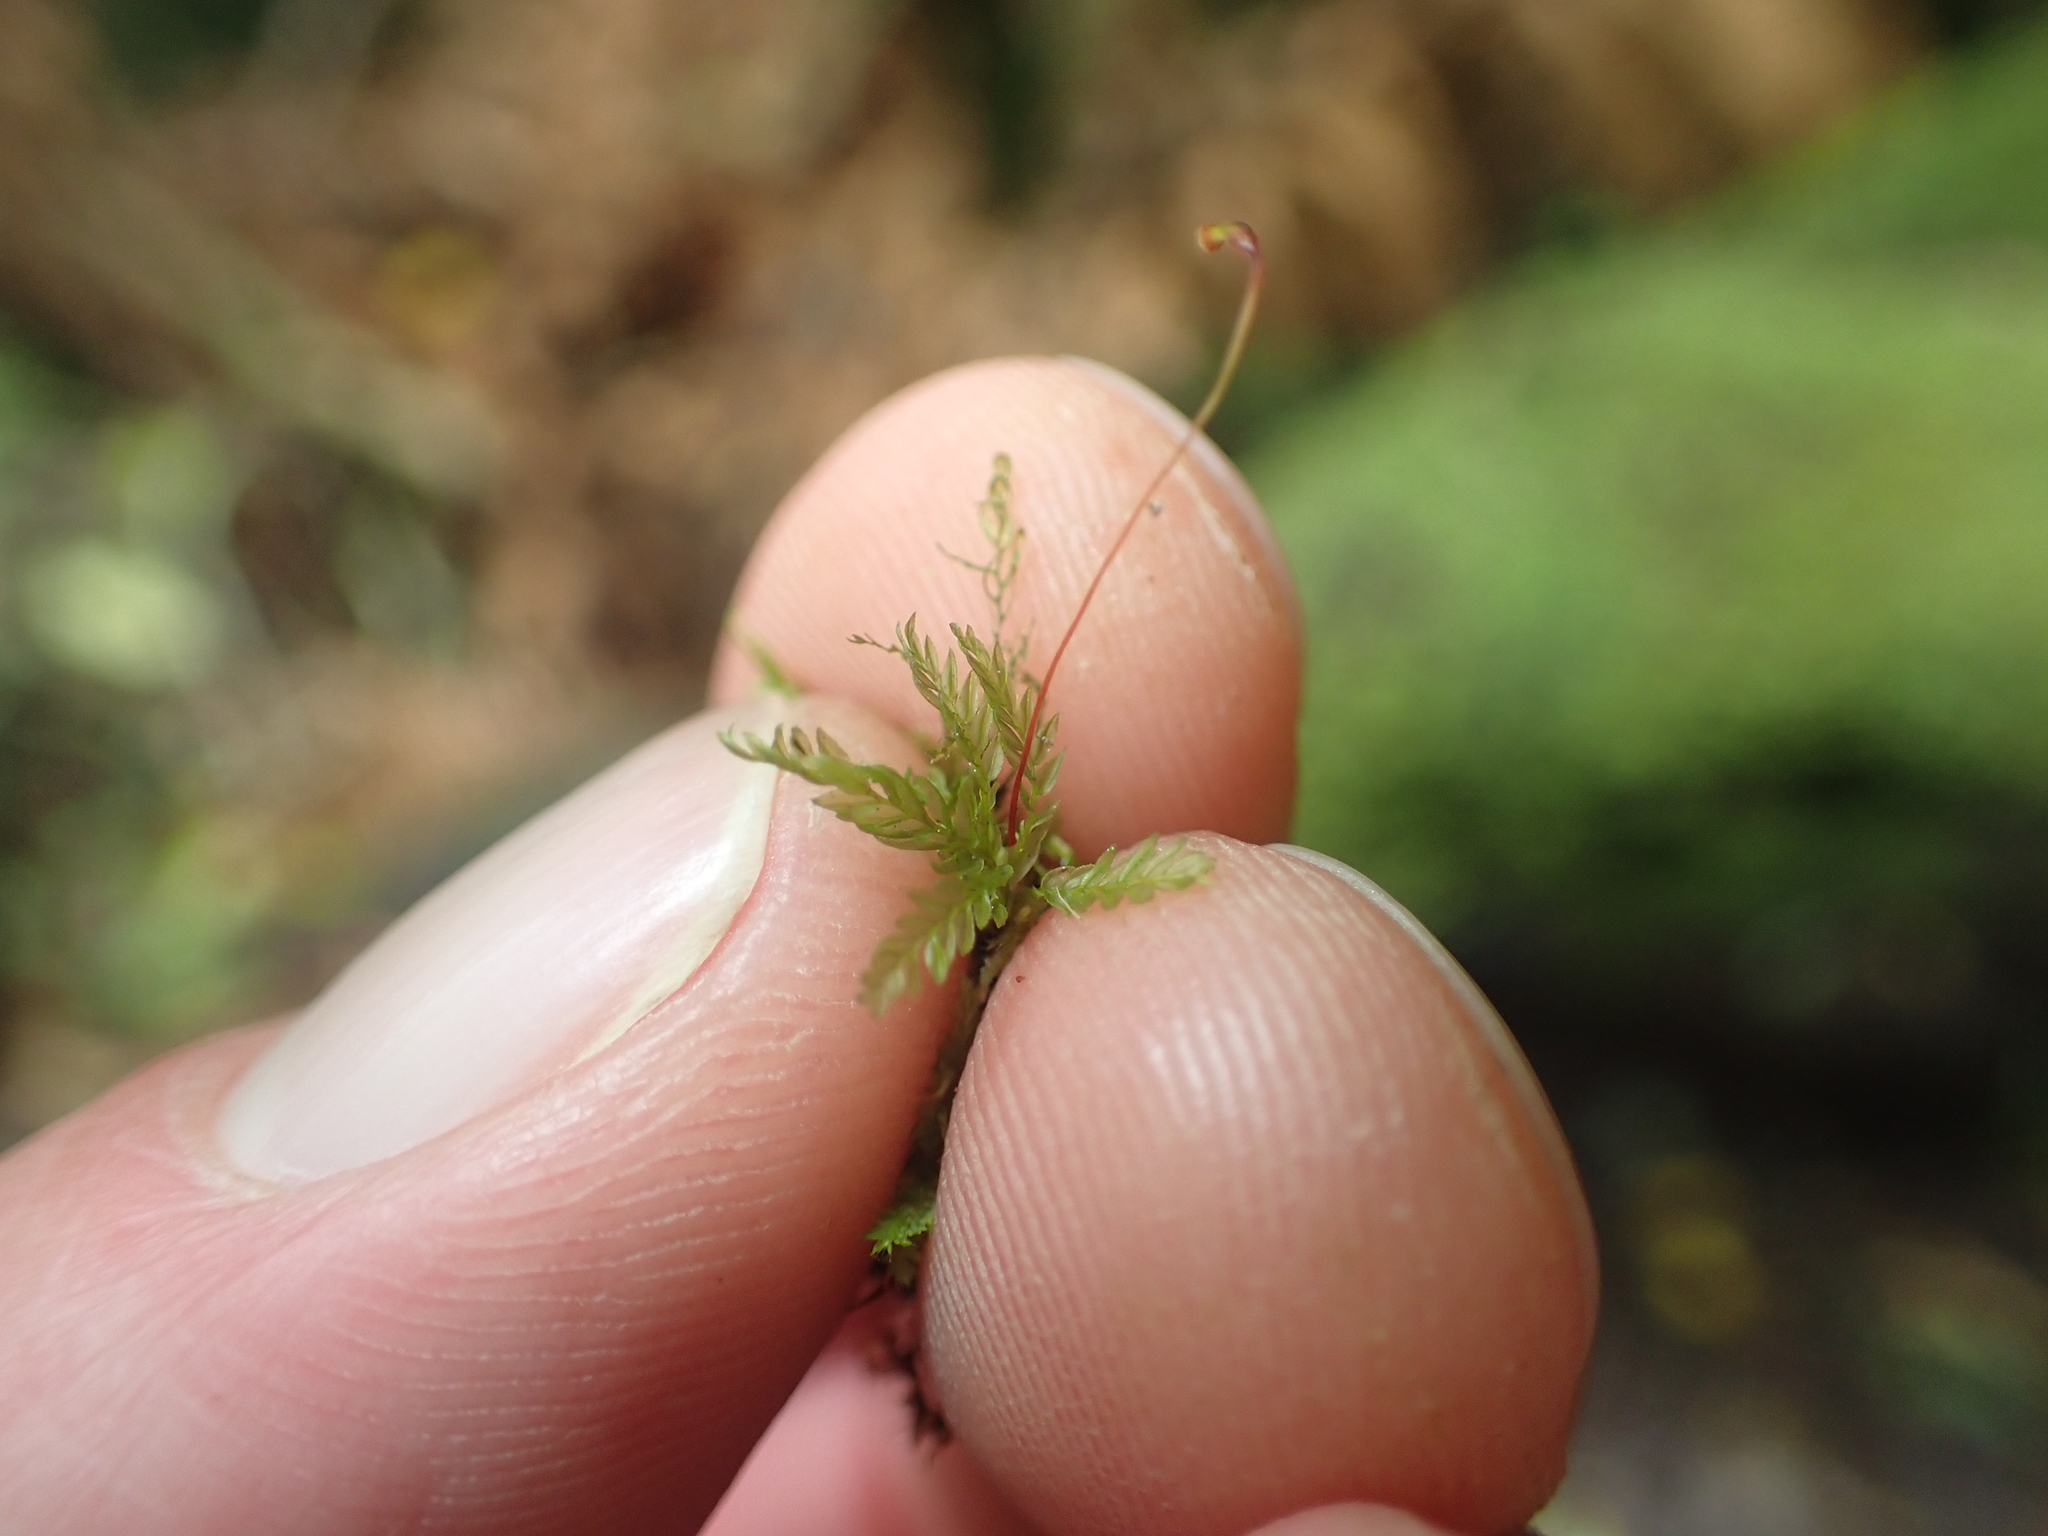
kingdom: Plantae
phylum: Bryophyta
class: Bryopsida
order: Aulacomniales
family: Aulacomniaceae
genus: Hymenodontopsis
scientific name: Hymenodontopsis bifaria
